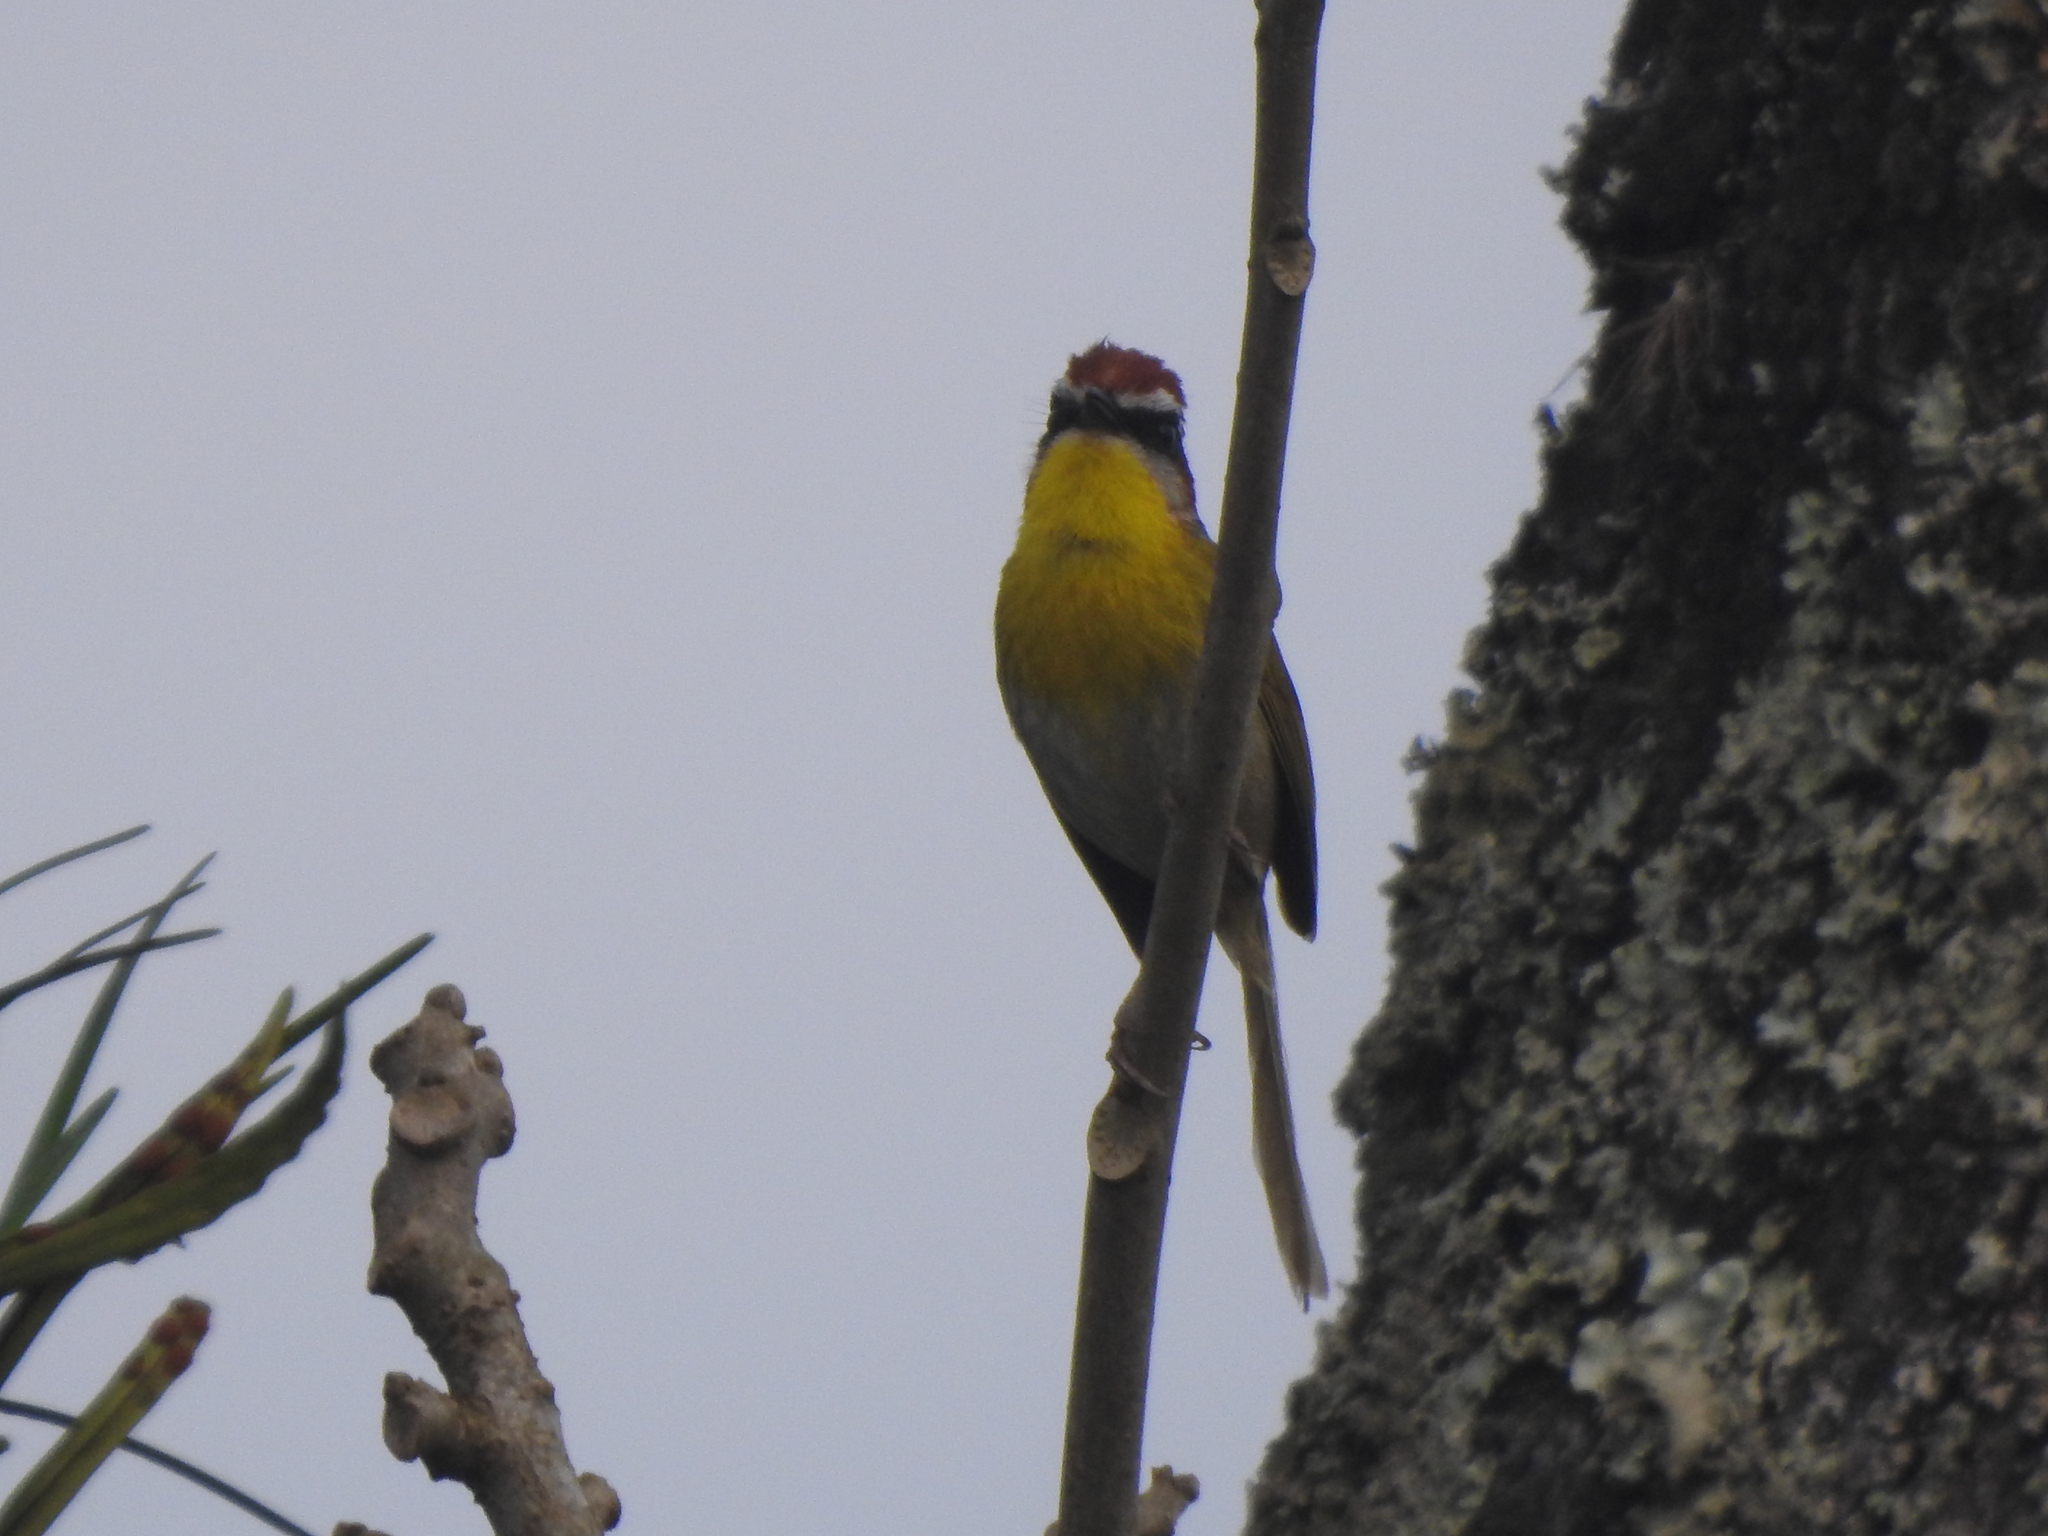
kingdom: Animalia
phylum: Chordata
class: Aves
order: Passeriformes
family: Parulidae
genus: Basileuterus
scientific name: Basileuterus rufifrons
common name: Rufous-capped warbler
